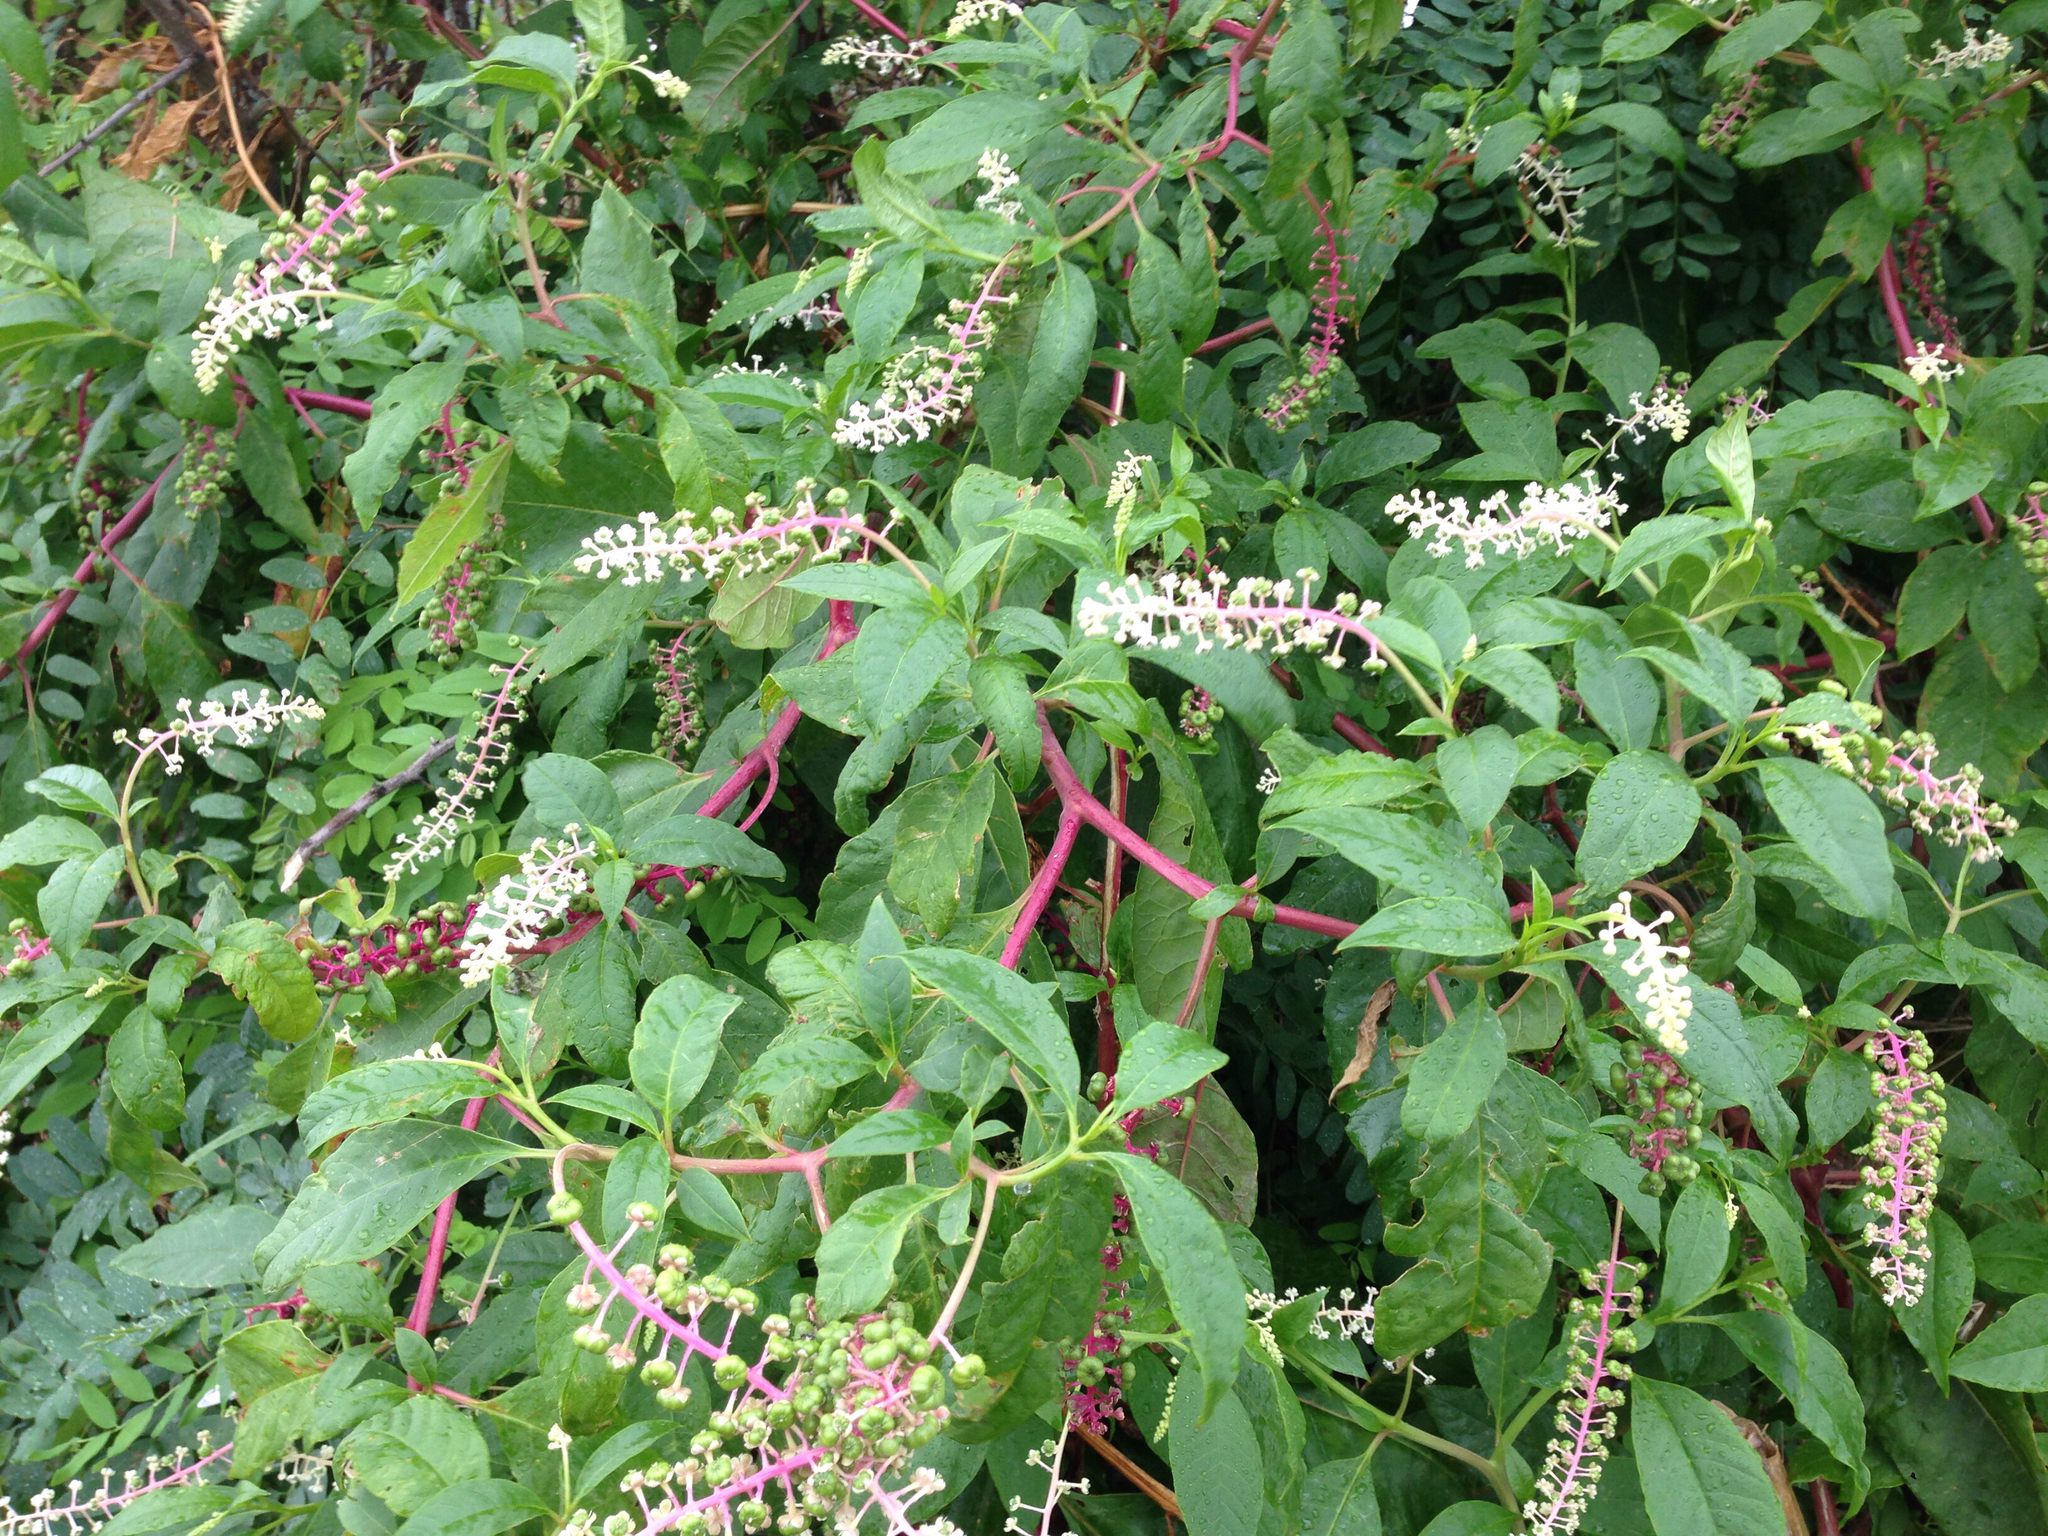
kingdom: Plantae
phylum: Tracheophyta
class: Magnoliopsida
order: Caryophyllales
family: Phytolaccaceae
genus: Phytolacca
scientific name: Phytolacca americana
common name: American pokeweed
